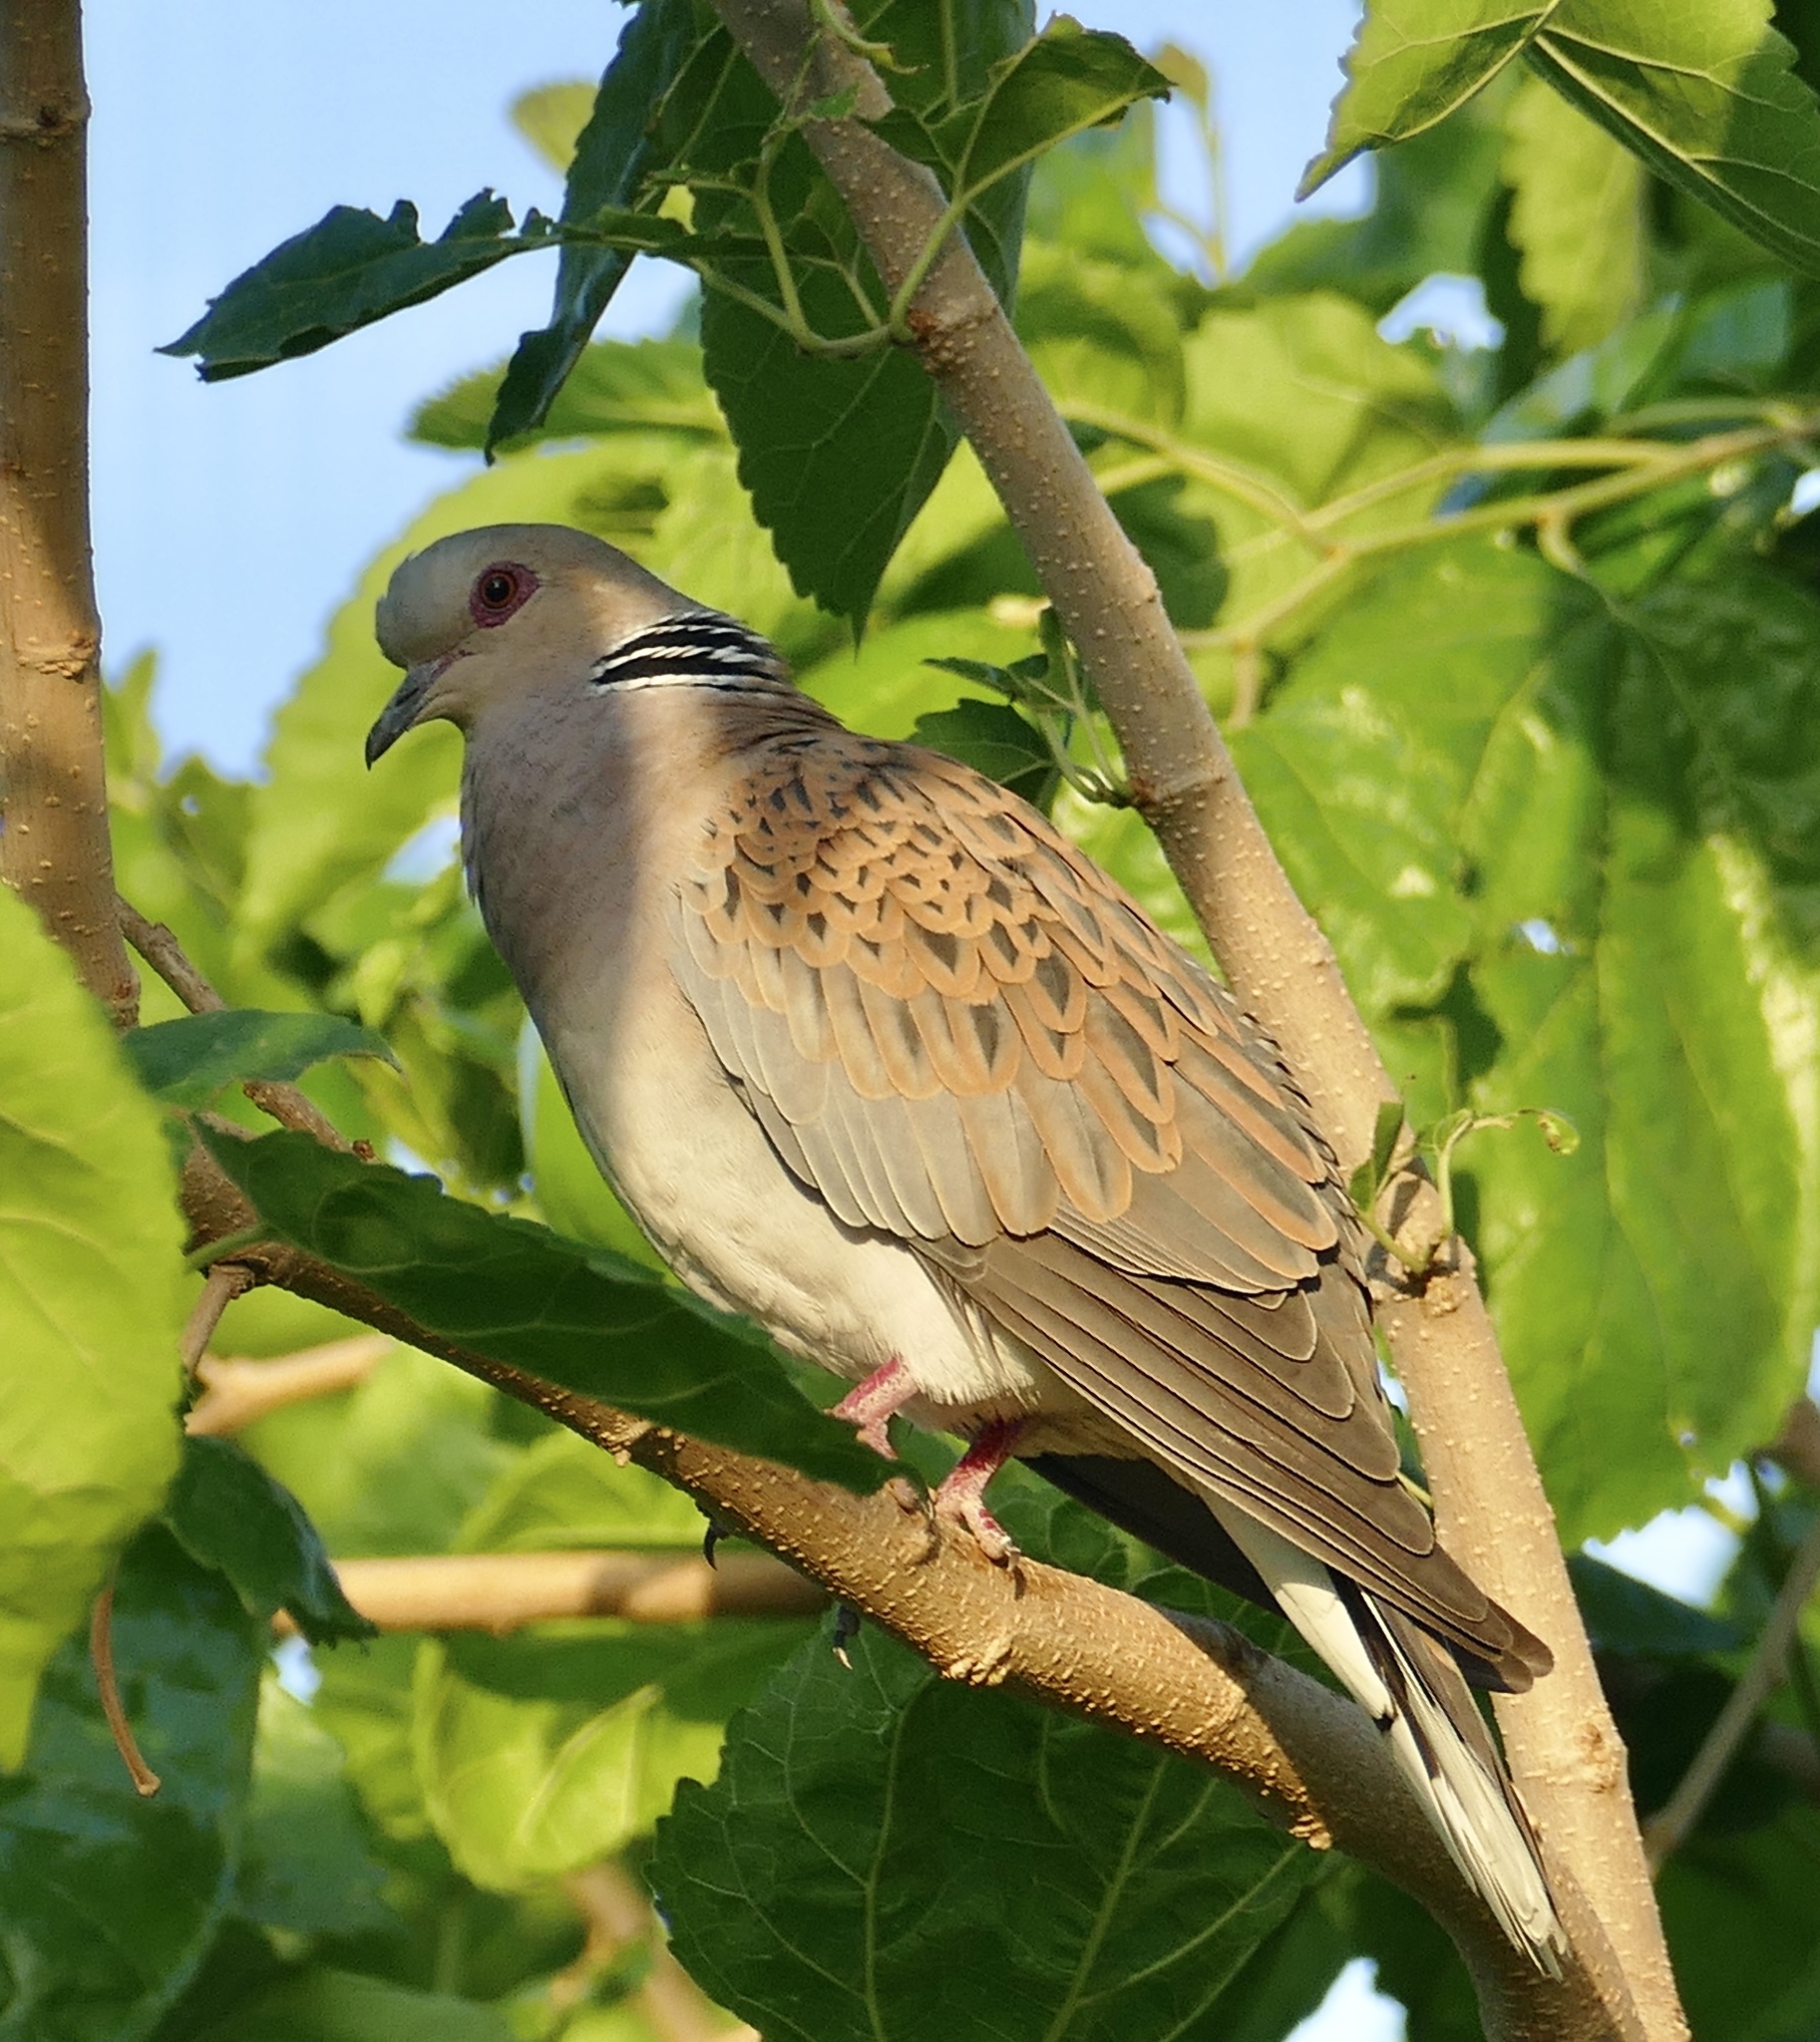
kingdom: Animalia
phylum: Chordata
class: Aves
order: Columbiformes
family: Columbidae
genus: Streptopelia
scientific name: Streptopelia turtur
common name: European turtle dove
